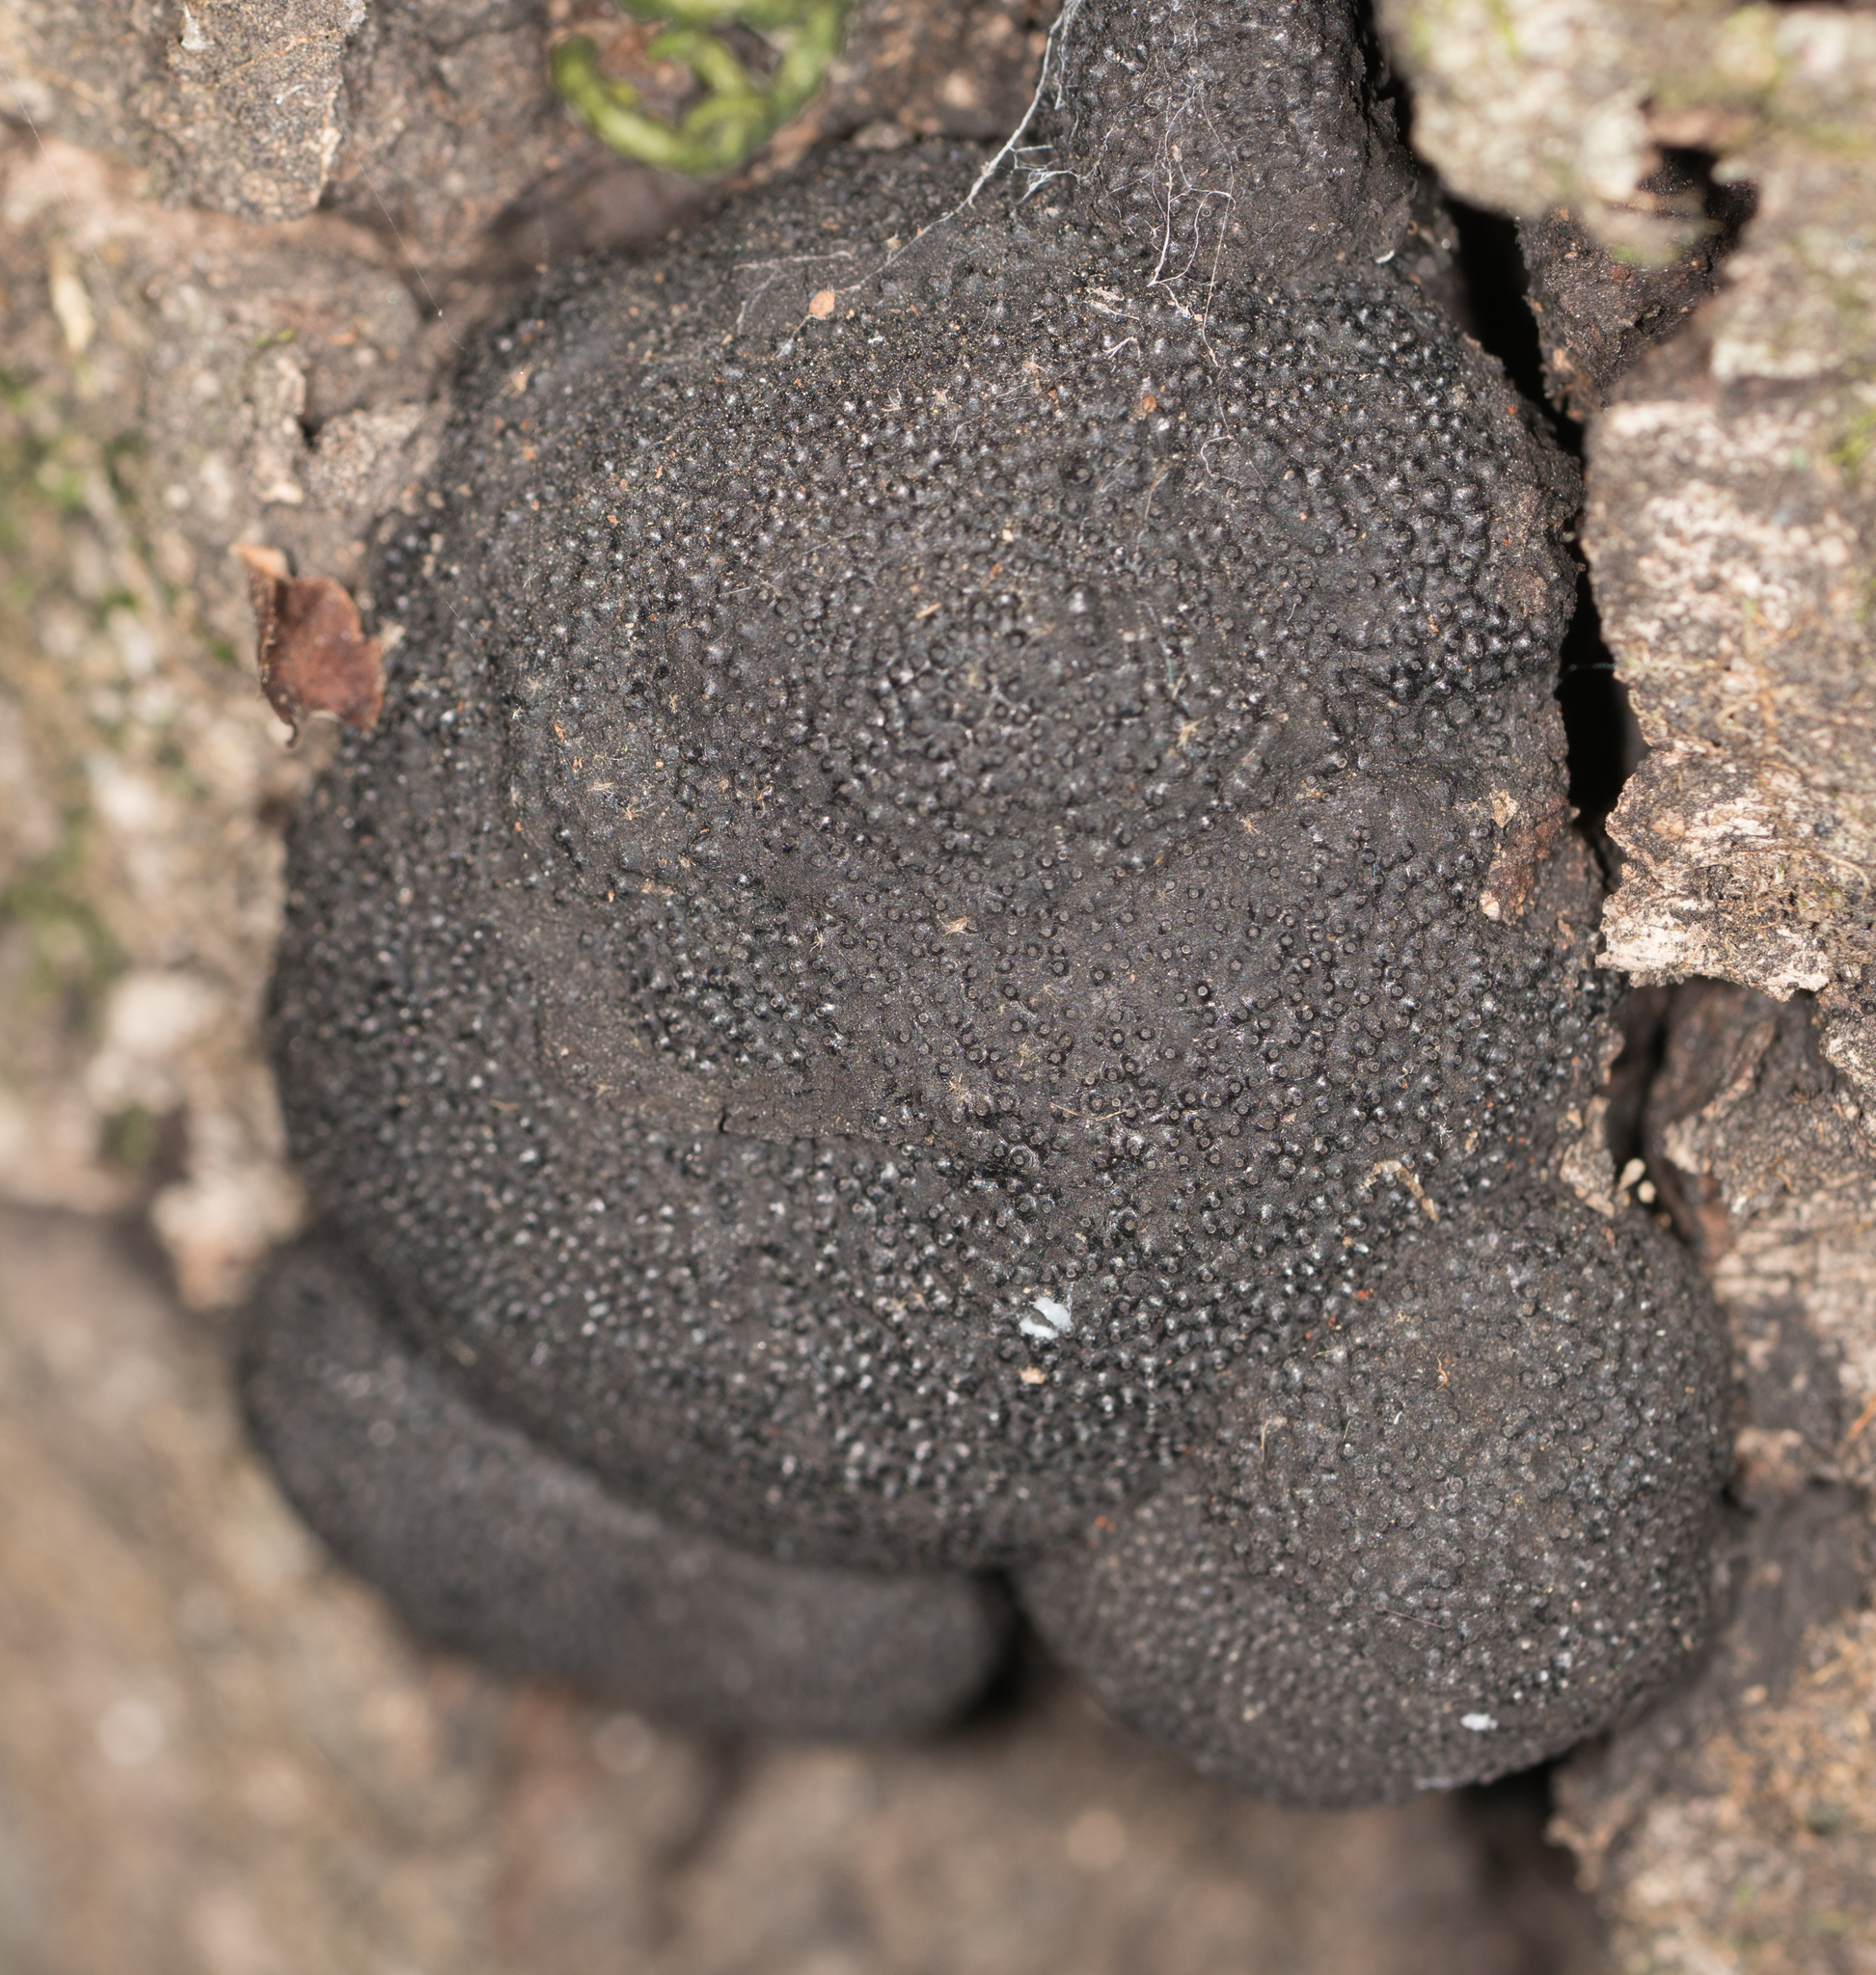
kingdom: Fungi
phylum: Ascomycota
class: Sordariomycetes
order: Xylariales
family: Hypoxylaceae
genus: Annulohypoxylon
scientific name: Annulohypoxylon thouarsianum
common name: Cramp balls
